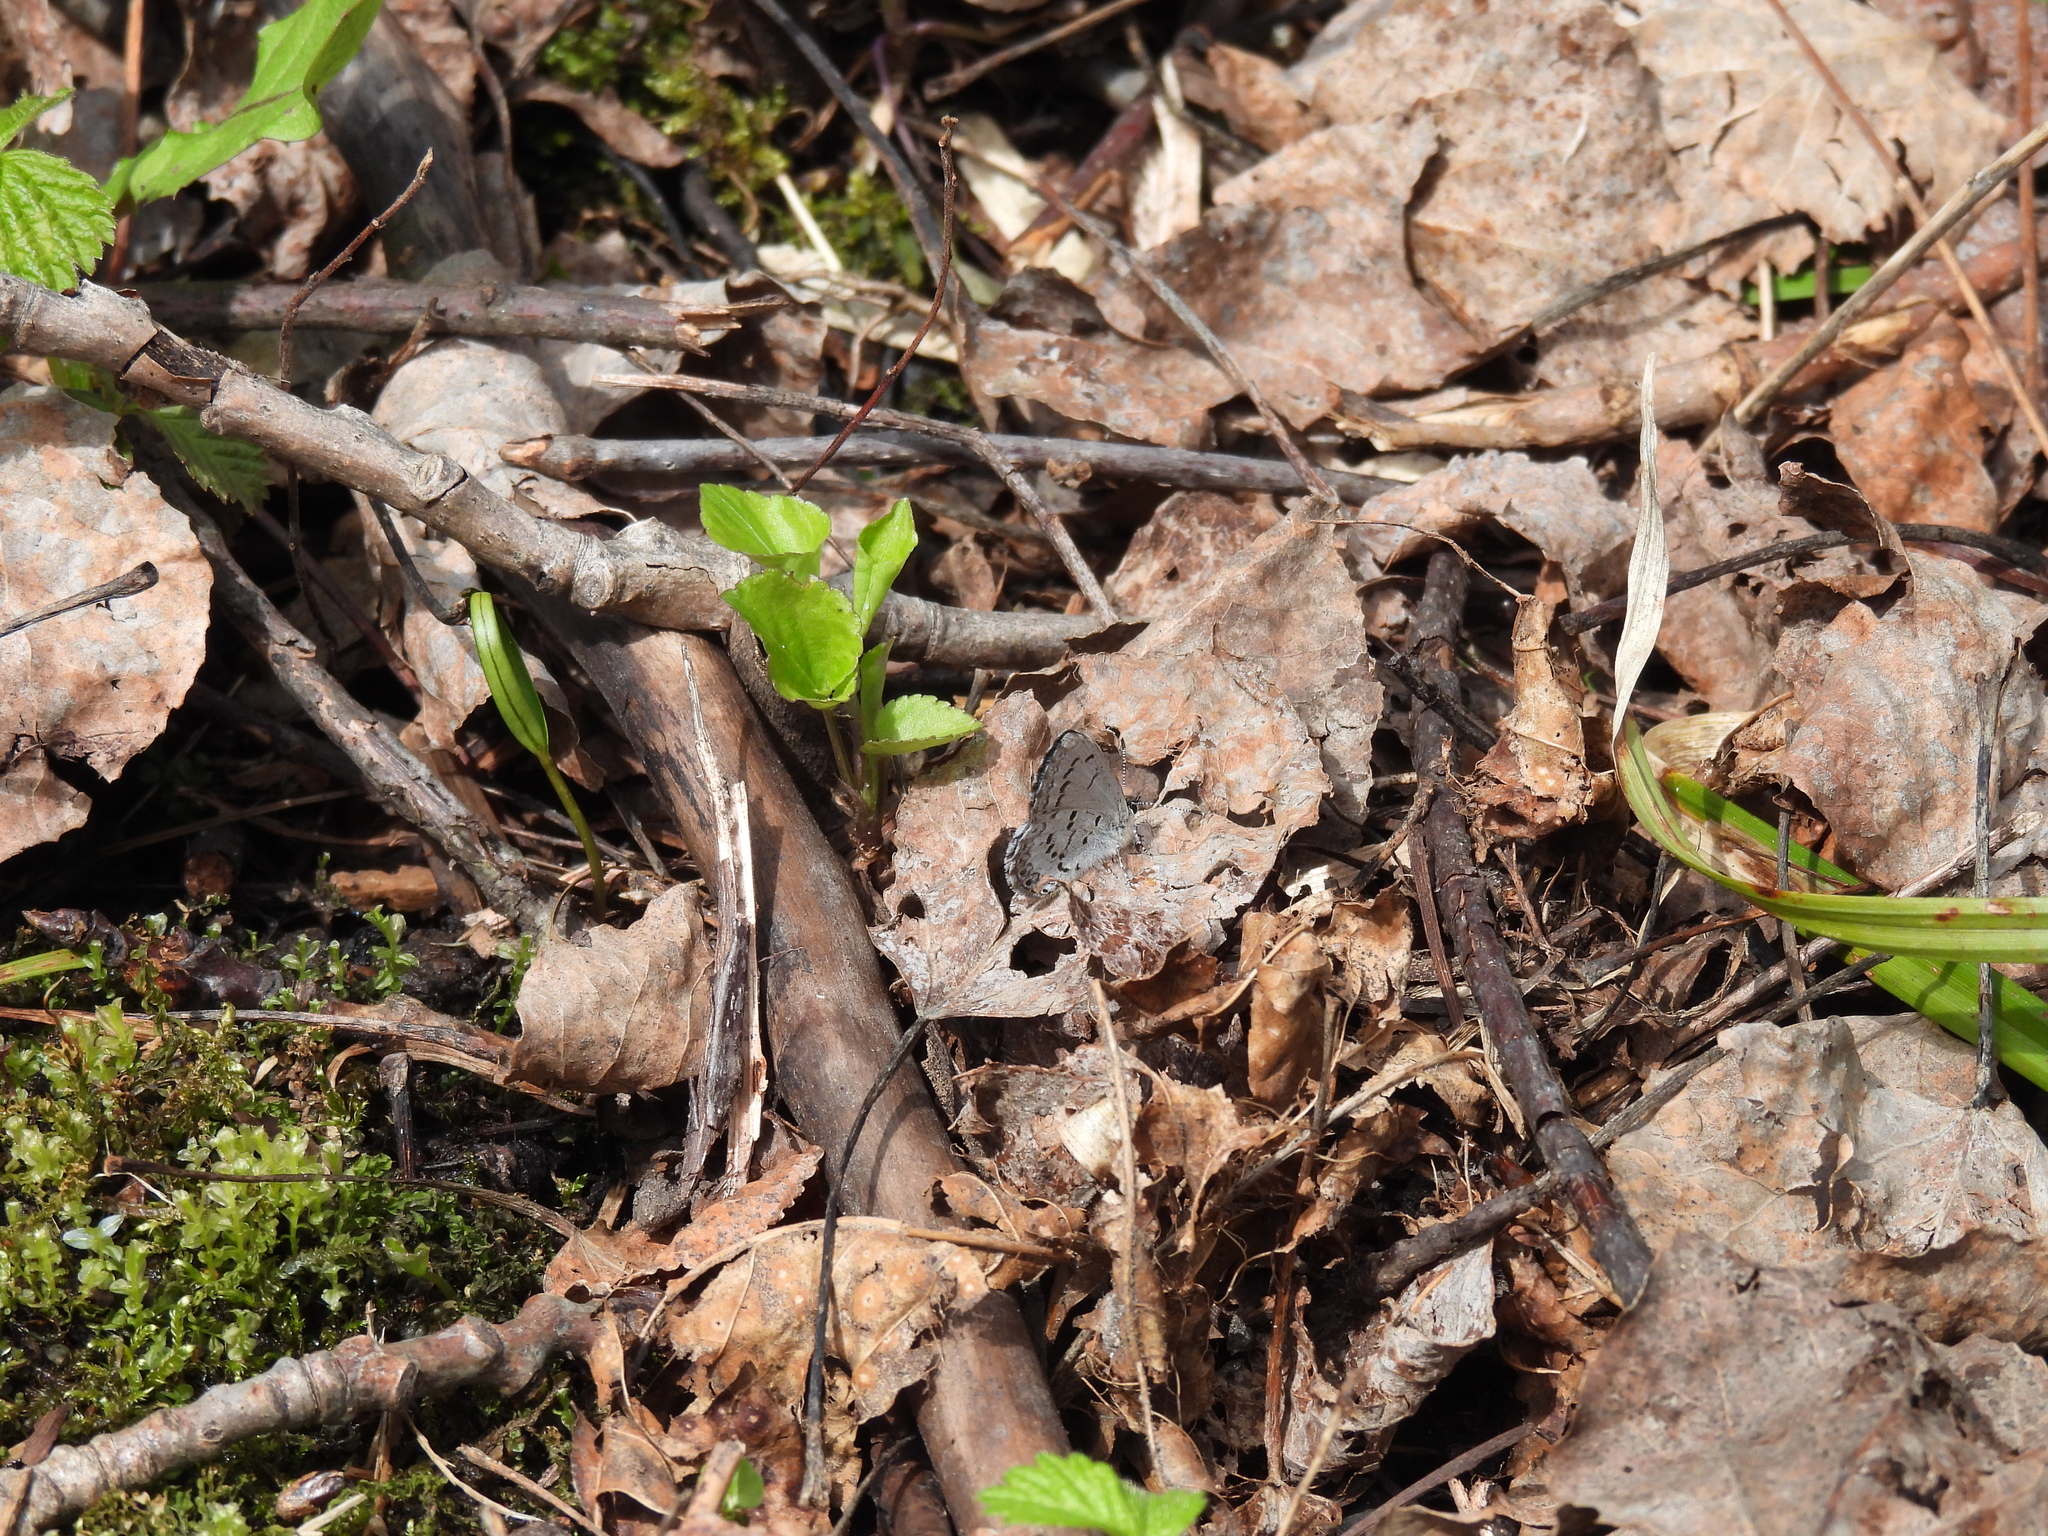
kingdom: Animalia
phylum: Arthropoda
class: Insecta
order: Lepidoptera
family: Lycaenidae
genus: Celastrina
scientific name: Celastrina lucia
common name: Lucia azure
